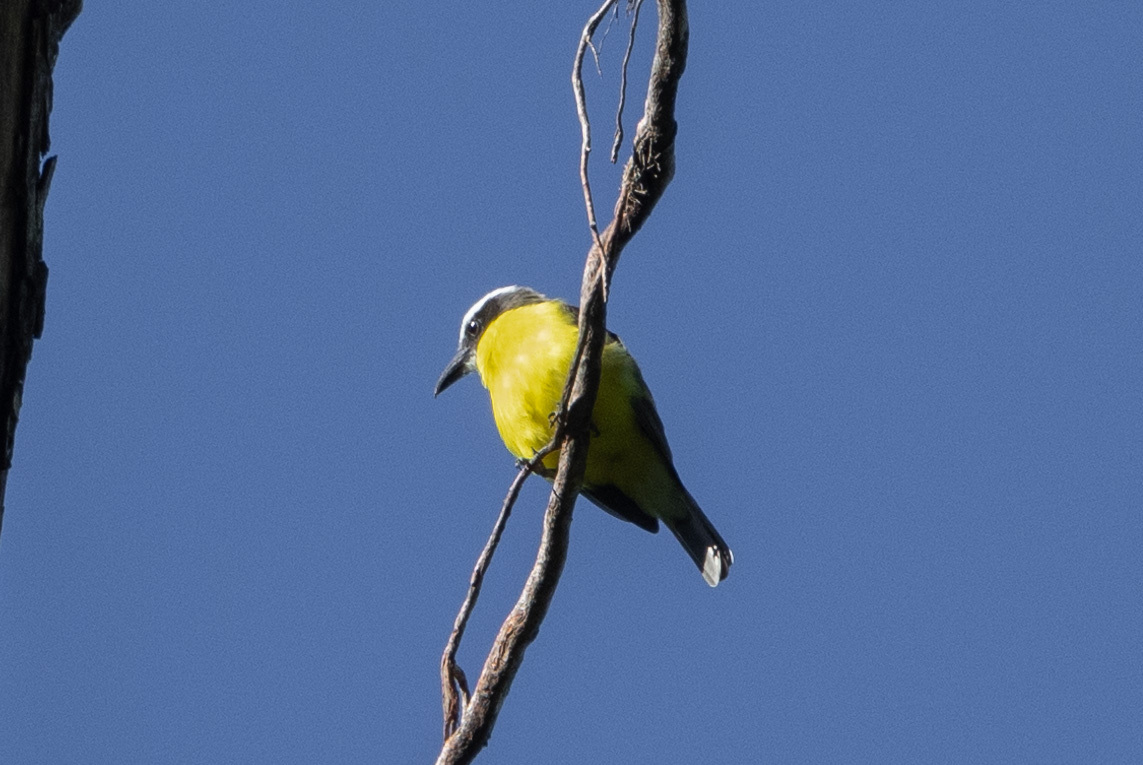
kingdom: Animalia
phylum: Chordata
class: Aves
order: Passeriformes
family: Tyrannidae
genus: Megarynchus
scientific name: Megarynchus pitangua
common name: Boat-billed flycatcher
